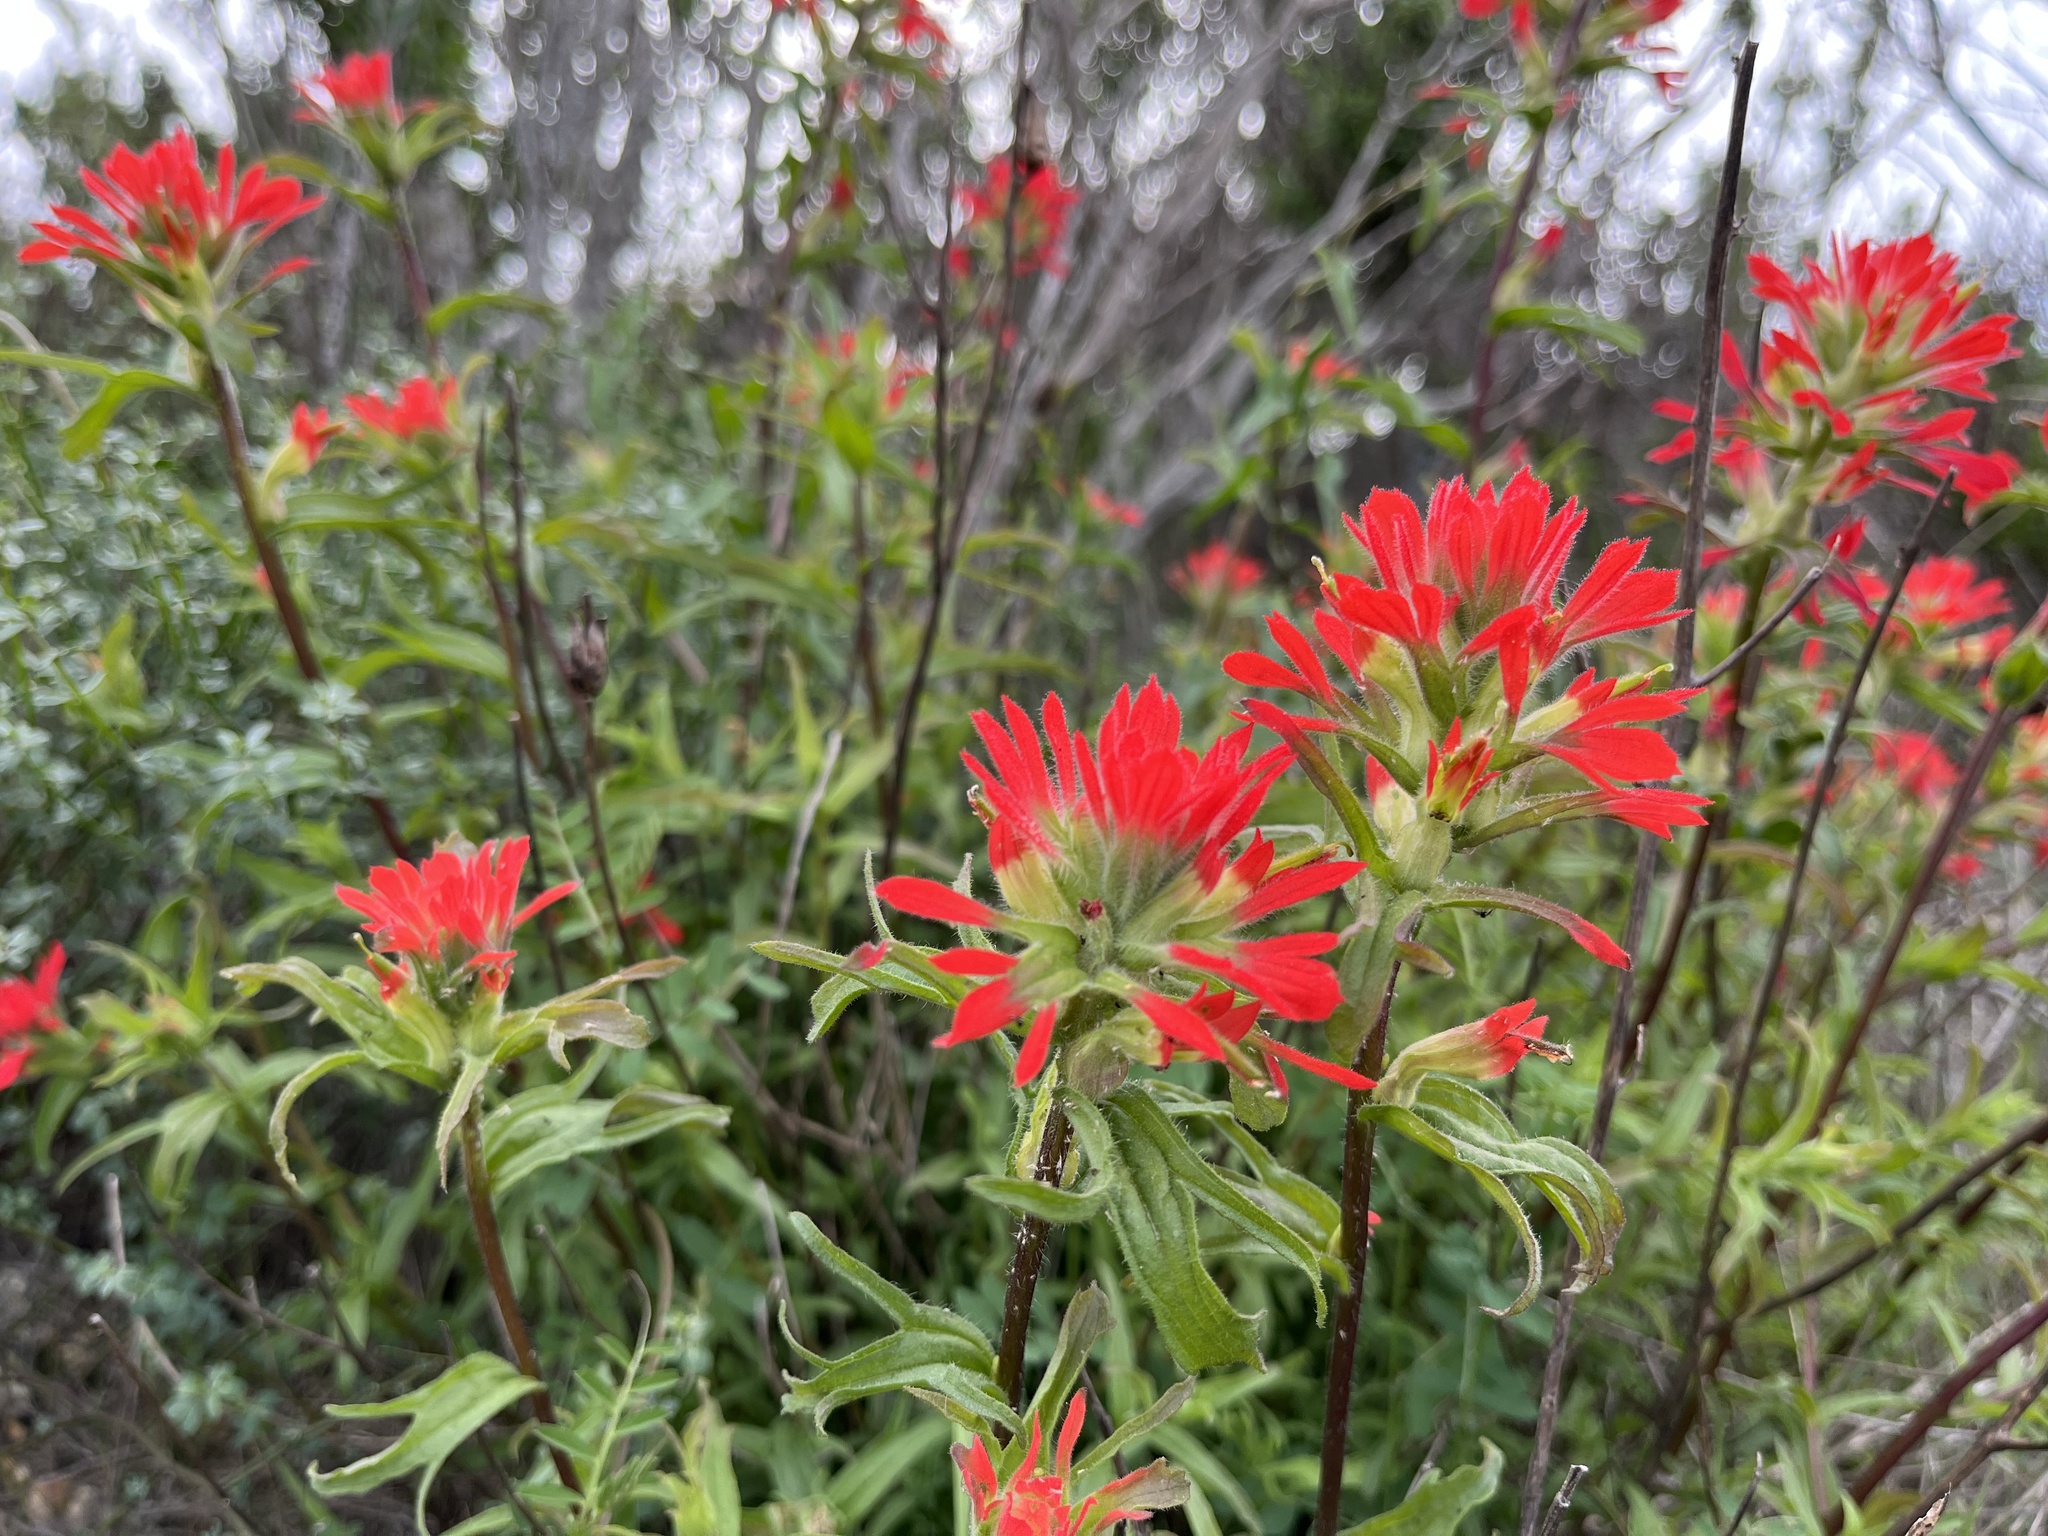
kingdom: Plantae
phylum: Tracheophyta
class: Magnoliopsida
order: Lamiales
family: Orobanchaceae
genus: Castilleja
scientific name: Castilleja affinis
